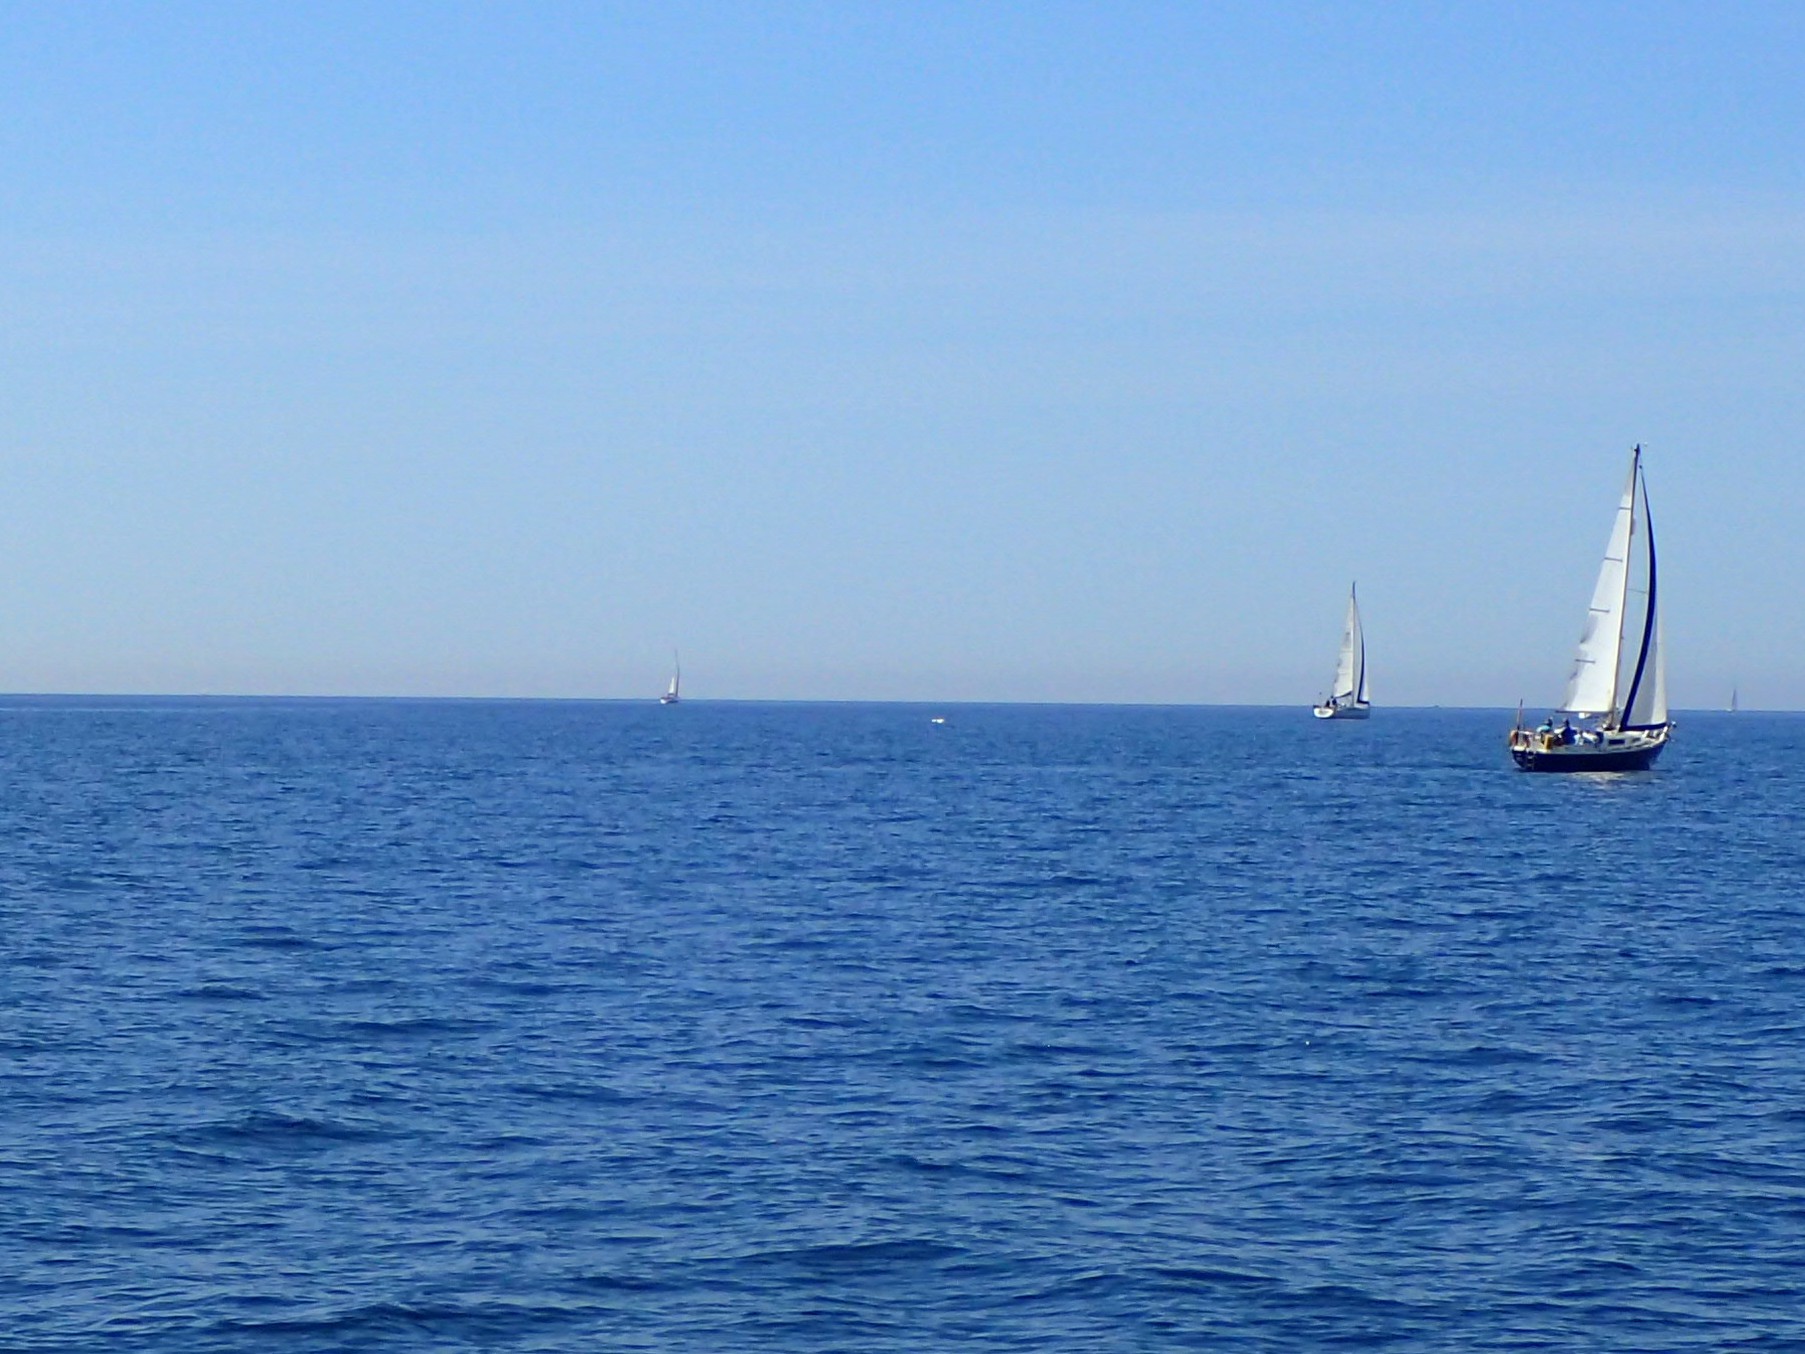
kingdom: Animalia
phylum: Chordata
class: Aves
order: Suliformes
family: Sulidae
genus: Morus
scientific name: Morus bassanus
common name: Northern gannet
